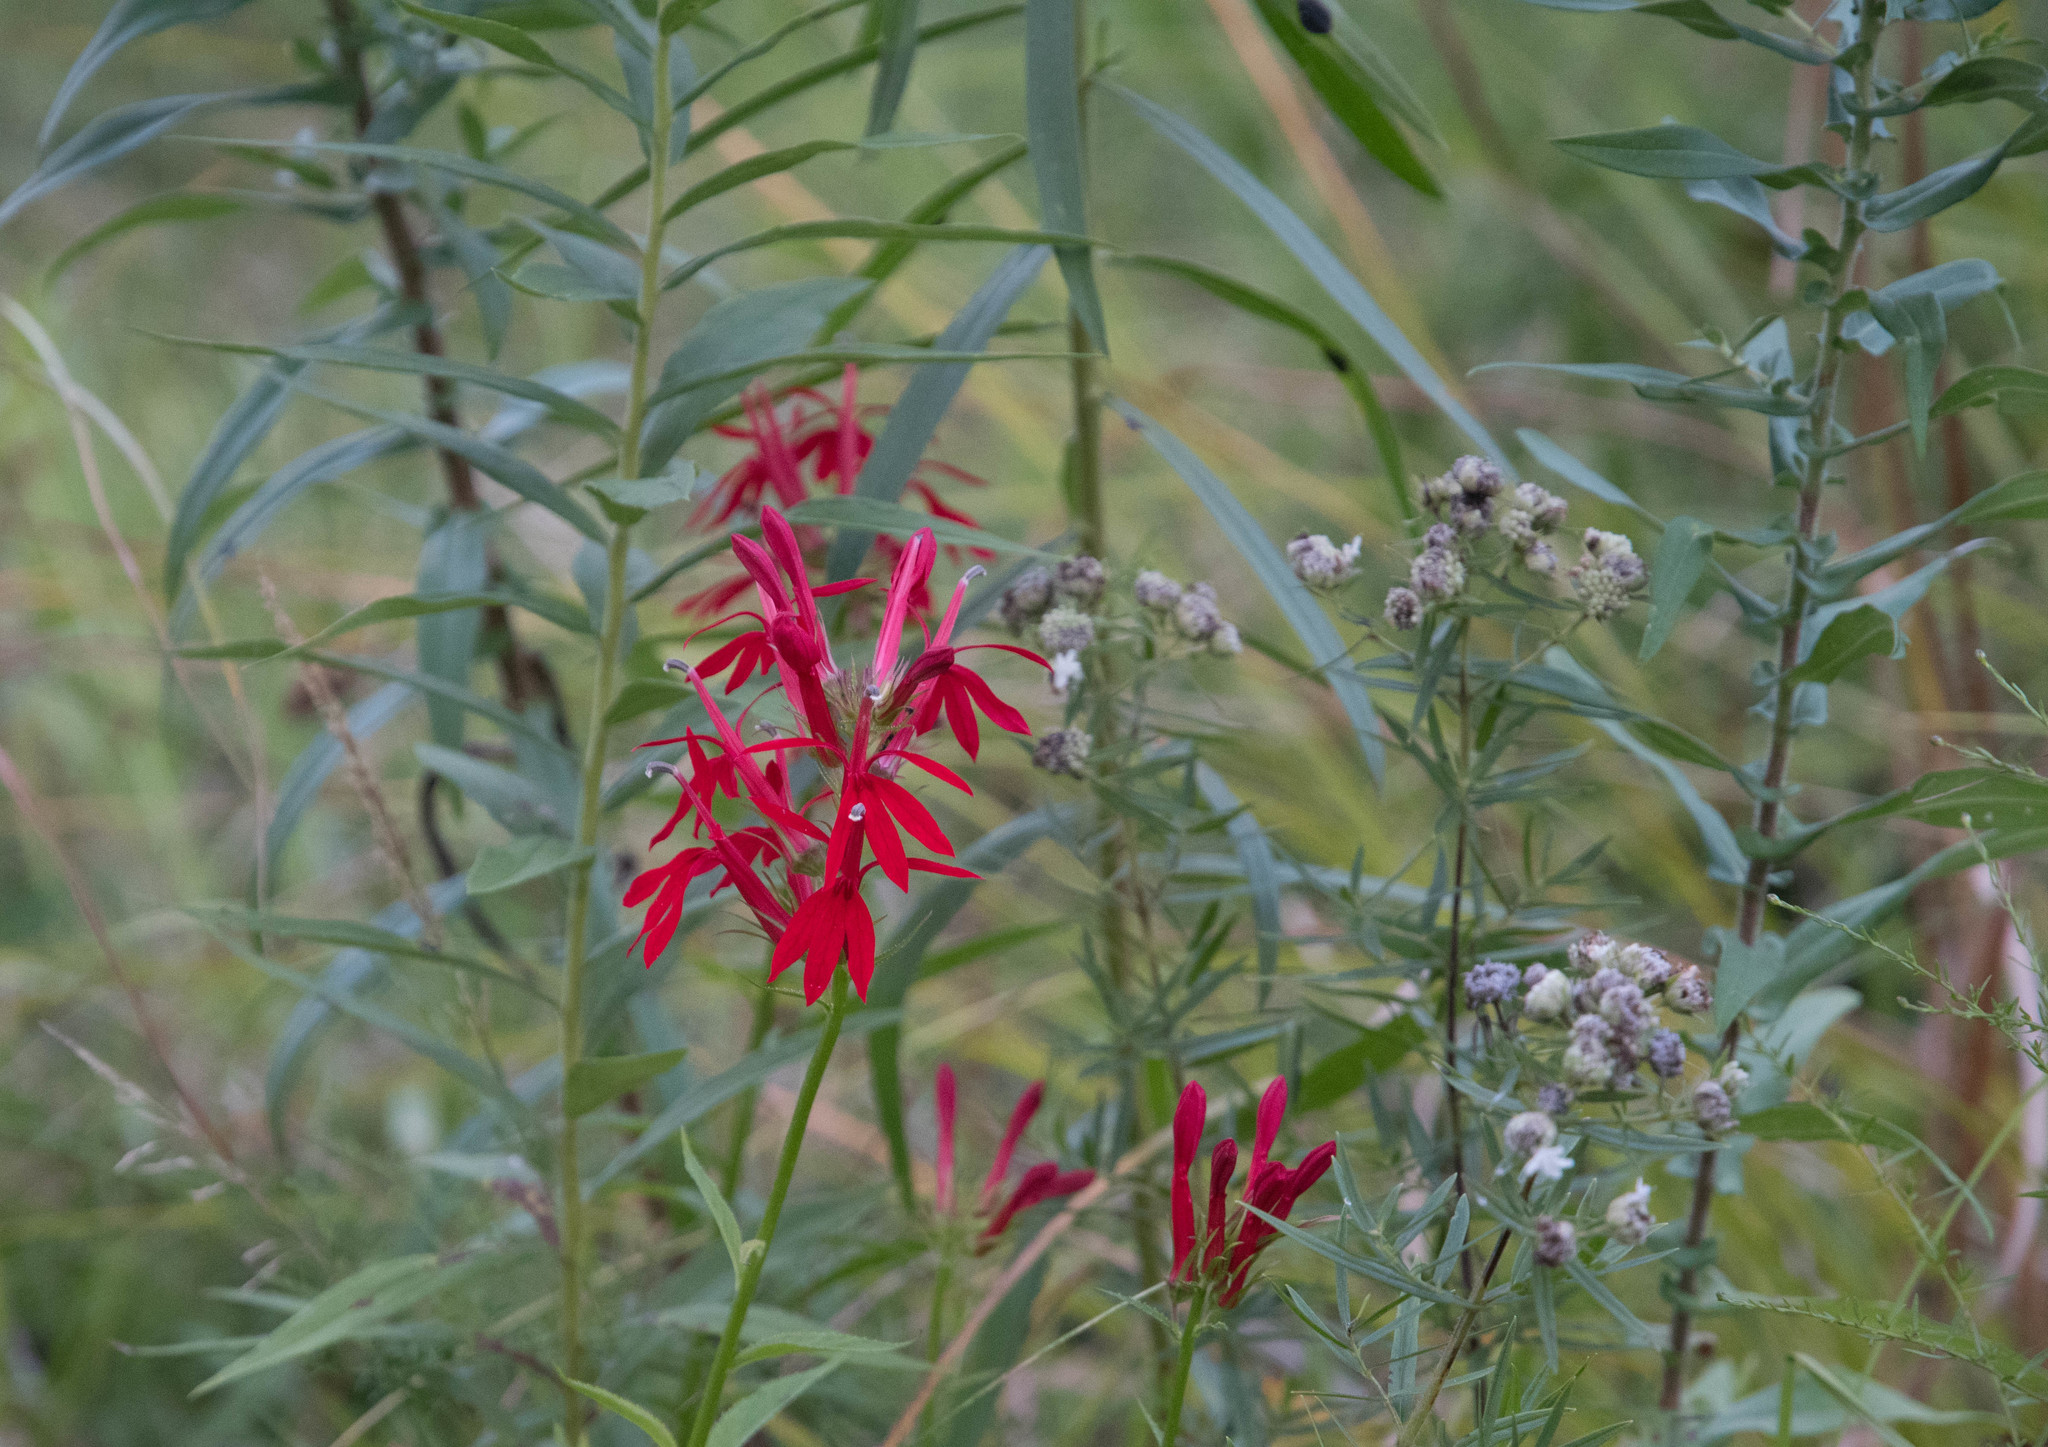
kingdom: Plantae
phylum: Tracheophyta
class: Magnoliopsida
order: Asterales
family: Campanulaceae
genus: Lobelia
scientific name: Lobelia cardinalis
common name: Cardinal flower
